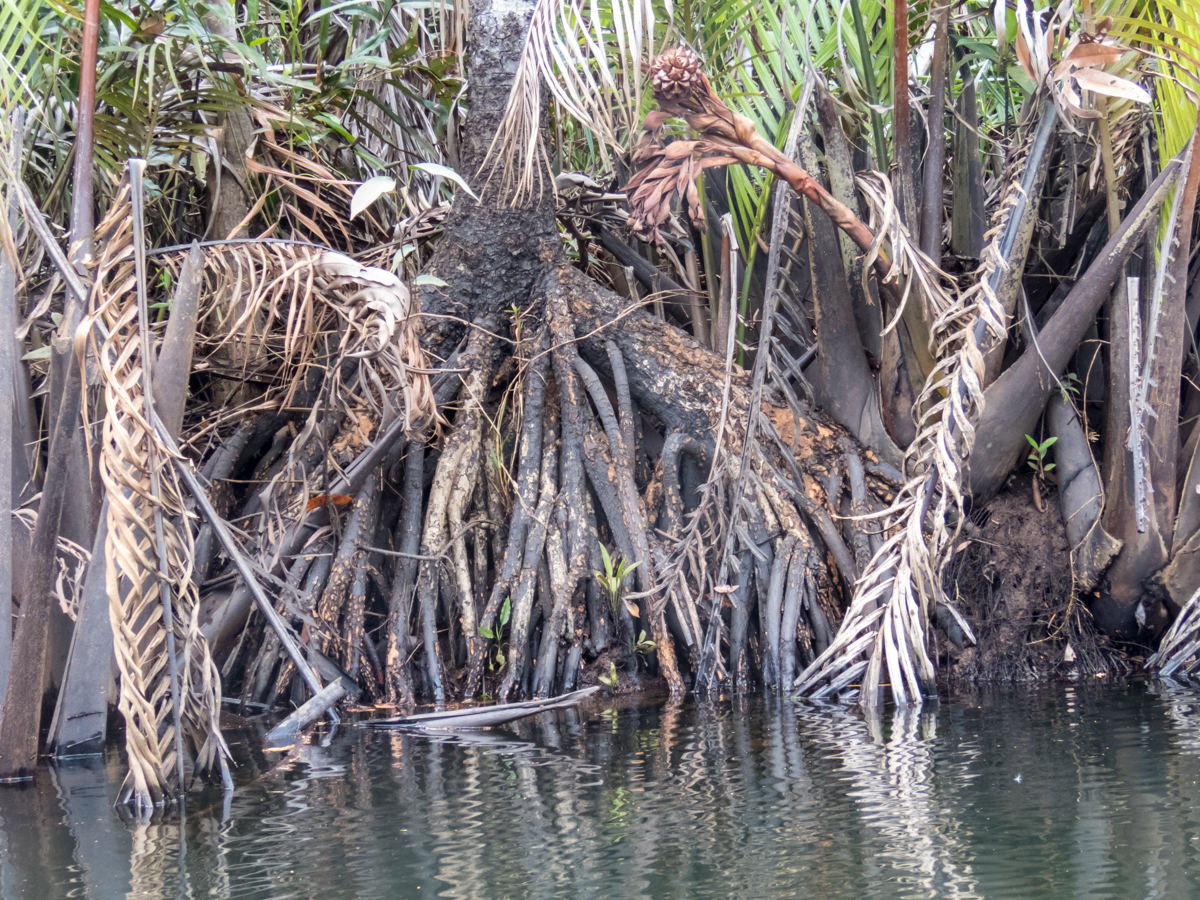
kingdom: Plantae
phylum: Tracheophyta
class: Magnoliopsida
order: Malpighiales
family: Rhizophoraceae
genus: Bruguiera
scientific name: Bruguiera gymnorhiza
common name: Oriental mangrove
